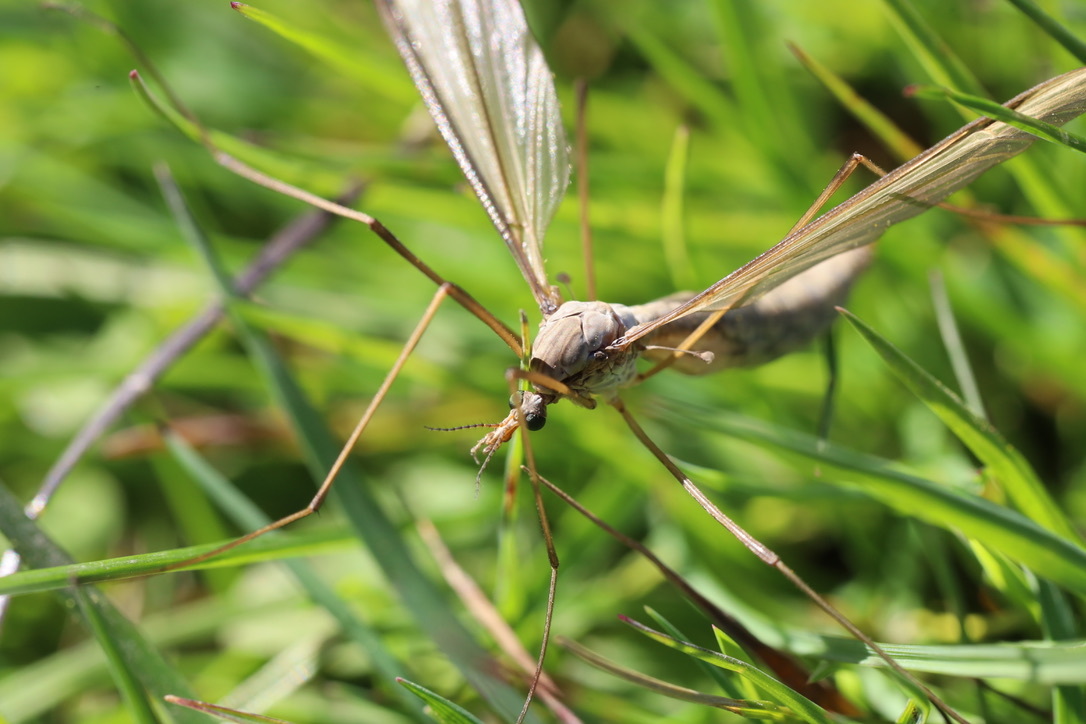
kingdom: Animalia
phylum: Arthropoda
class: Insecta
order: Diptera
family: Tipulidae
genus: Tipula
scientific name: Tipula oleracea
